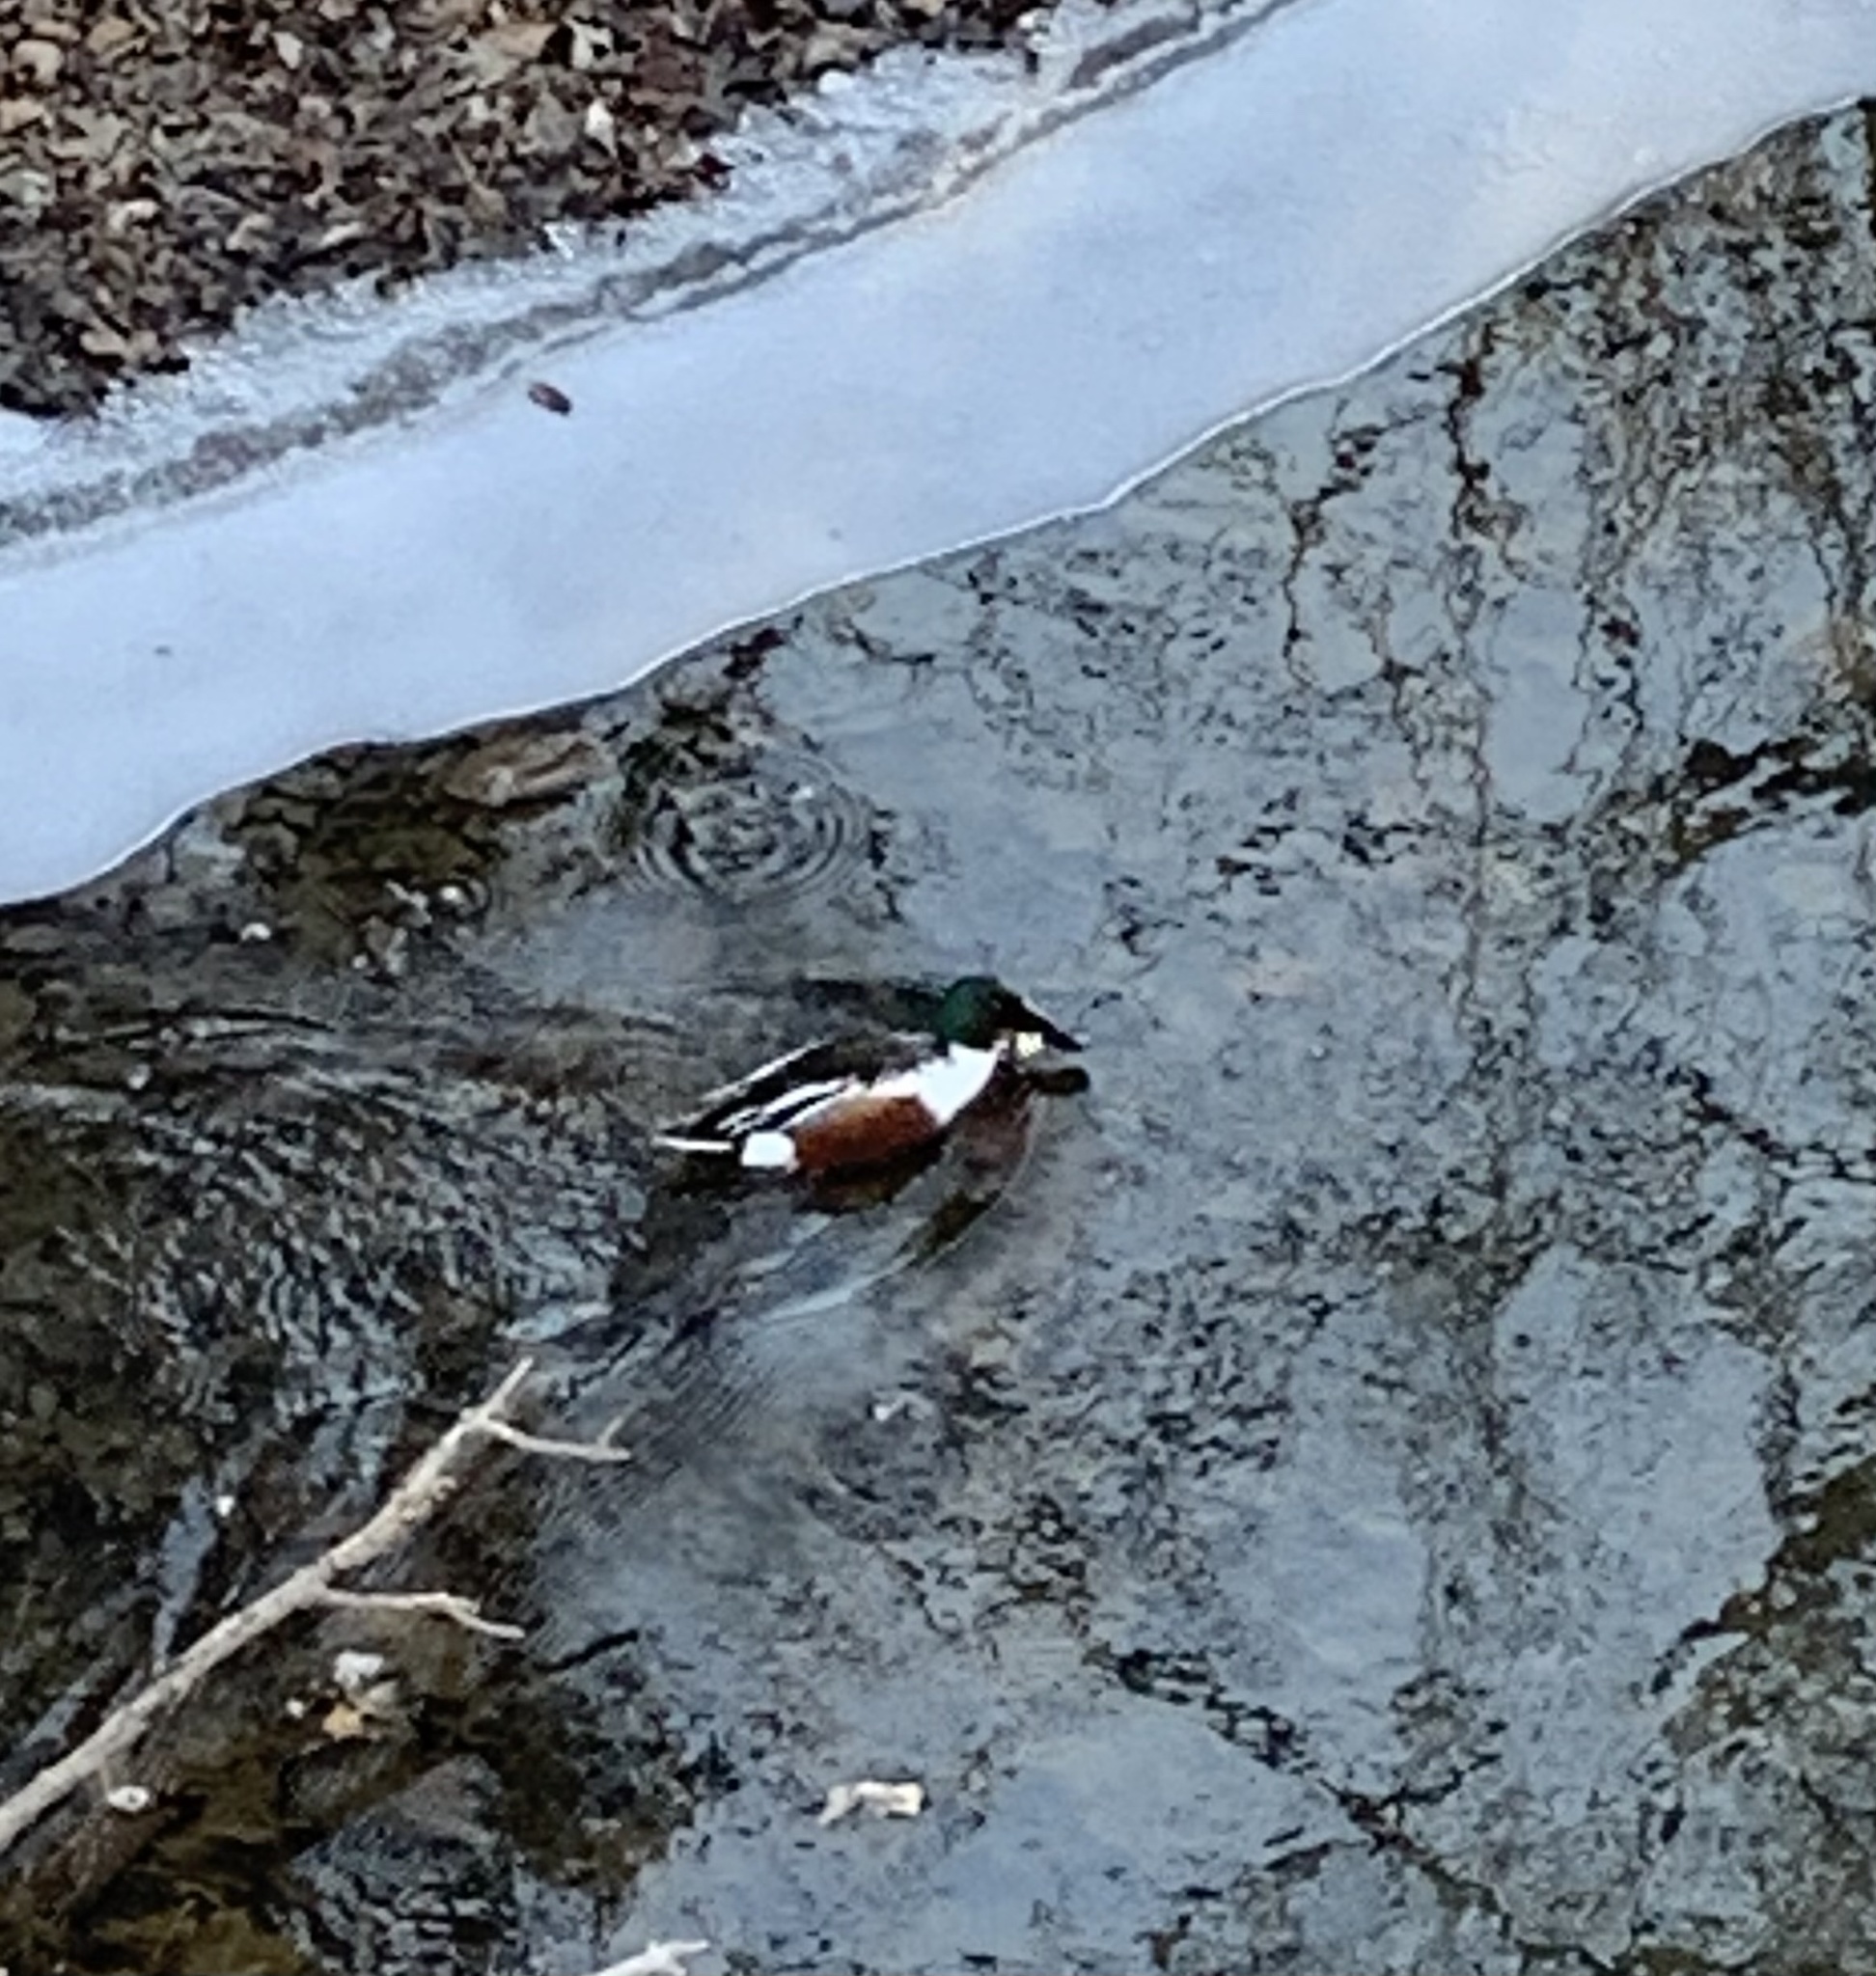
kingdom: Animalia
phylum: Chordata
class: Aves
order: Anseriformes
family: Anatidae
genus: Spatula
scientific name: Spatula clypeata
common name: Northern shoveler
